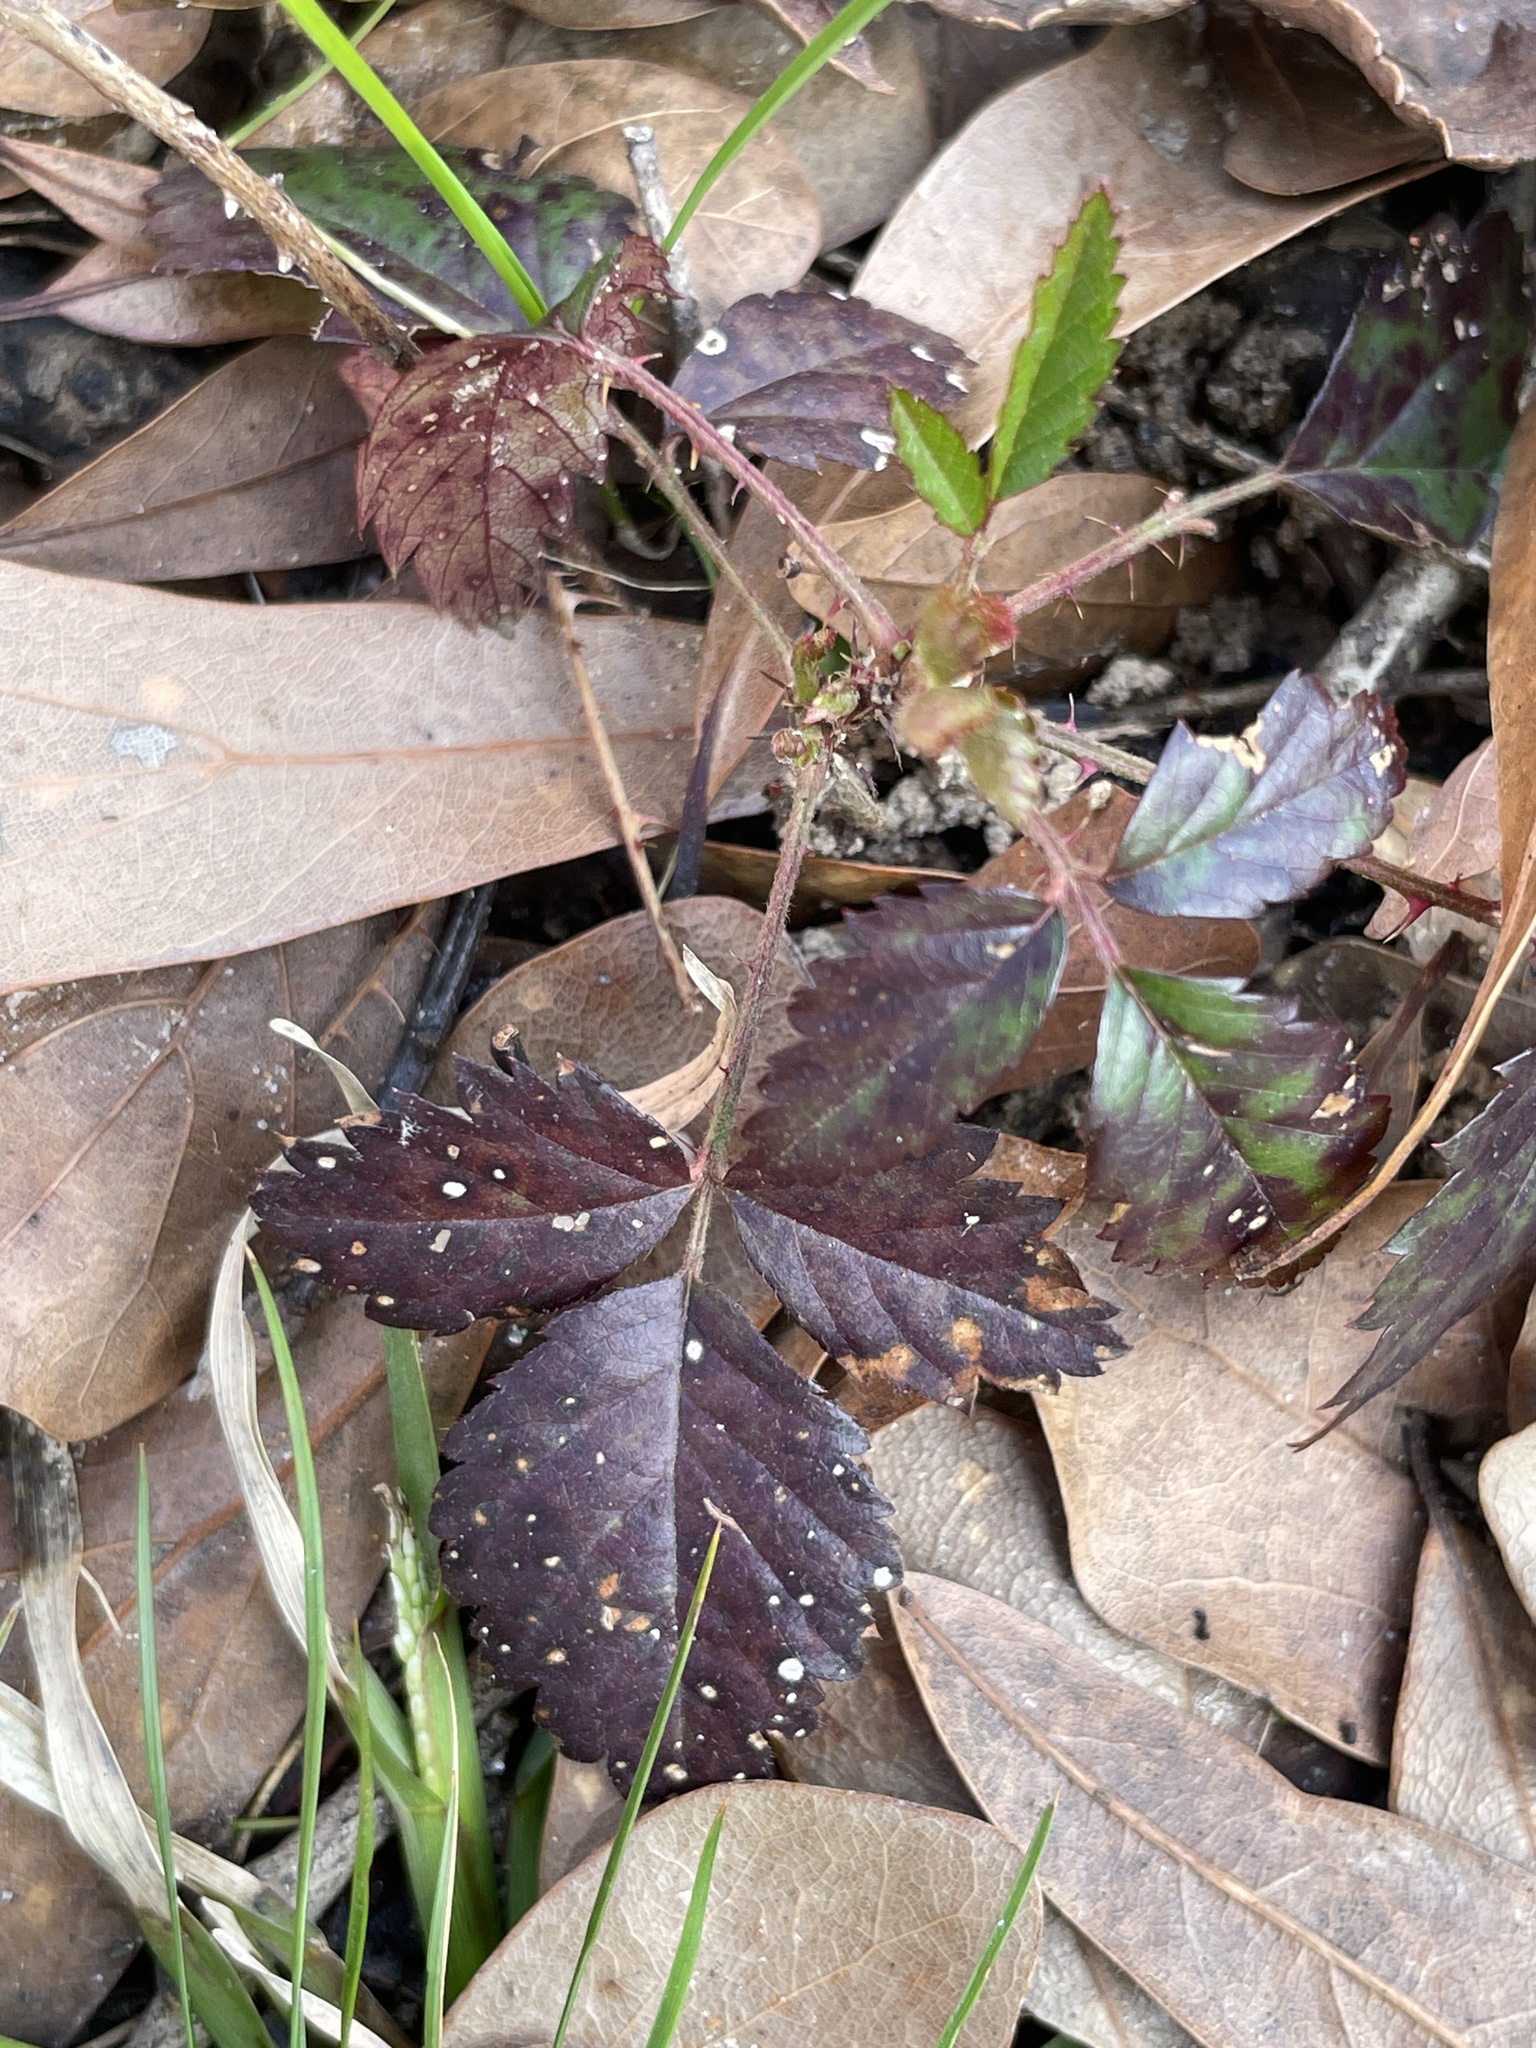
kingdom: Plantae
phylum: Tracheophyta
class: Magnoliopsida
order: Rosales
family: Rosaceae
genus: Rubus
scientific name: Rubus trivialis
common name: Southern dewberry
